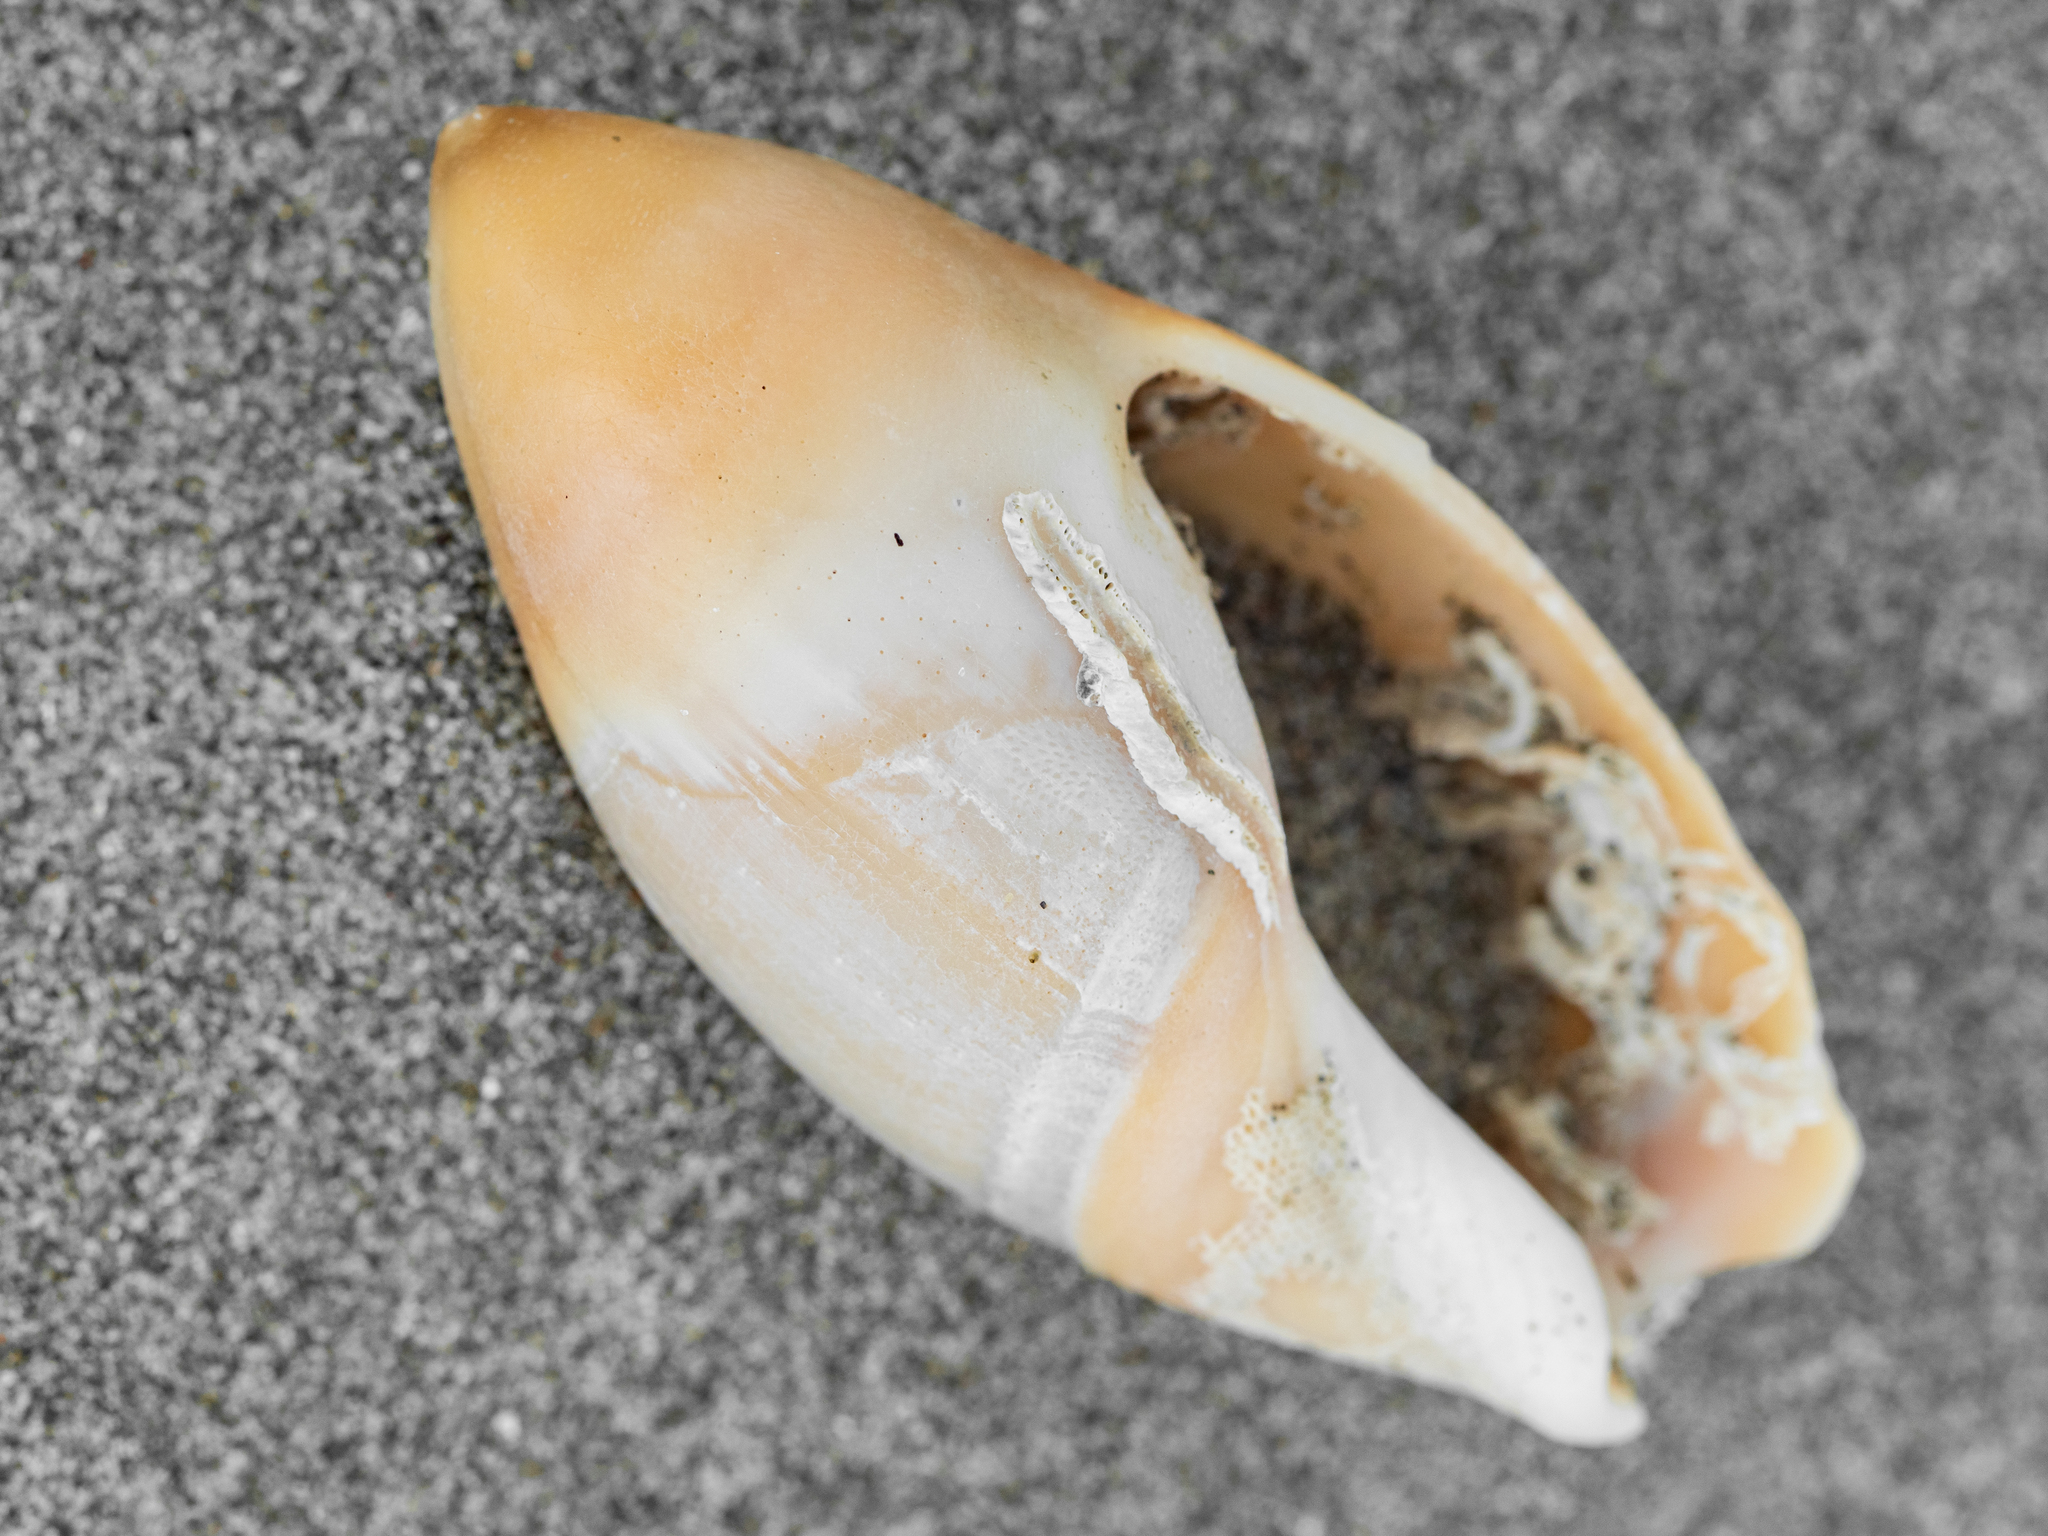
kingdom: Animalia
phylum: Mollusca
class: Gastropoda
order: Neogastropoda
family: Ancillariidae
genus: Amalda
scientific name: Amalda mucronata
